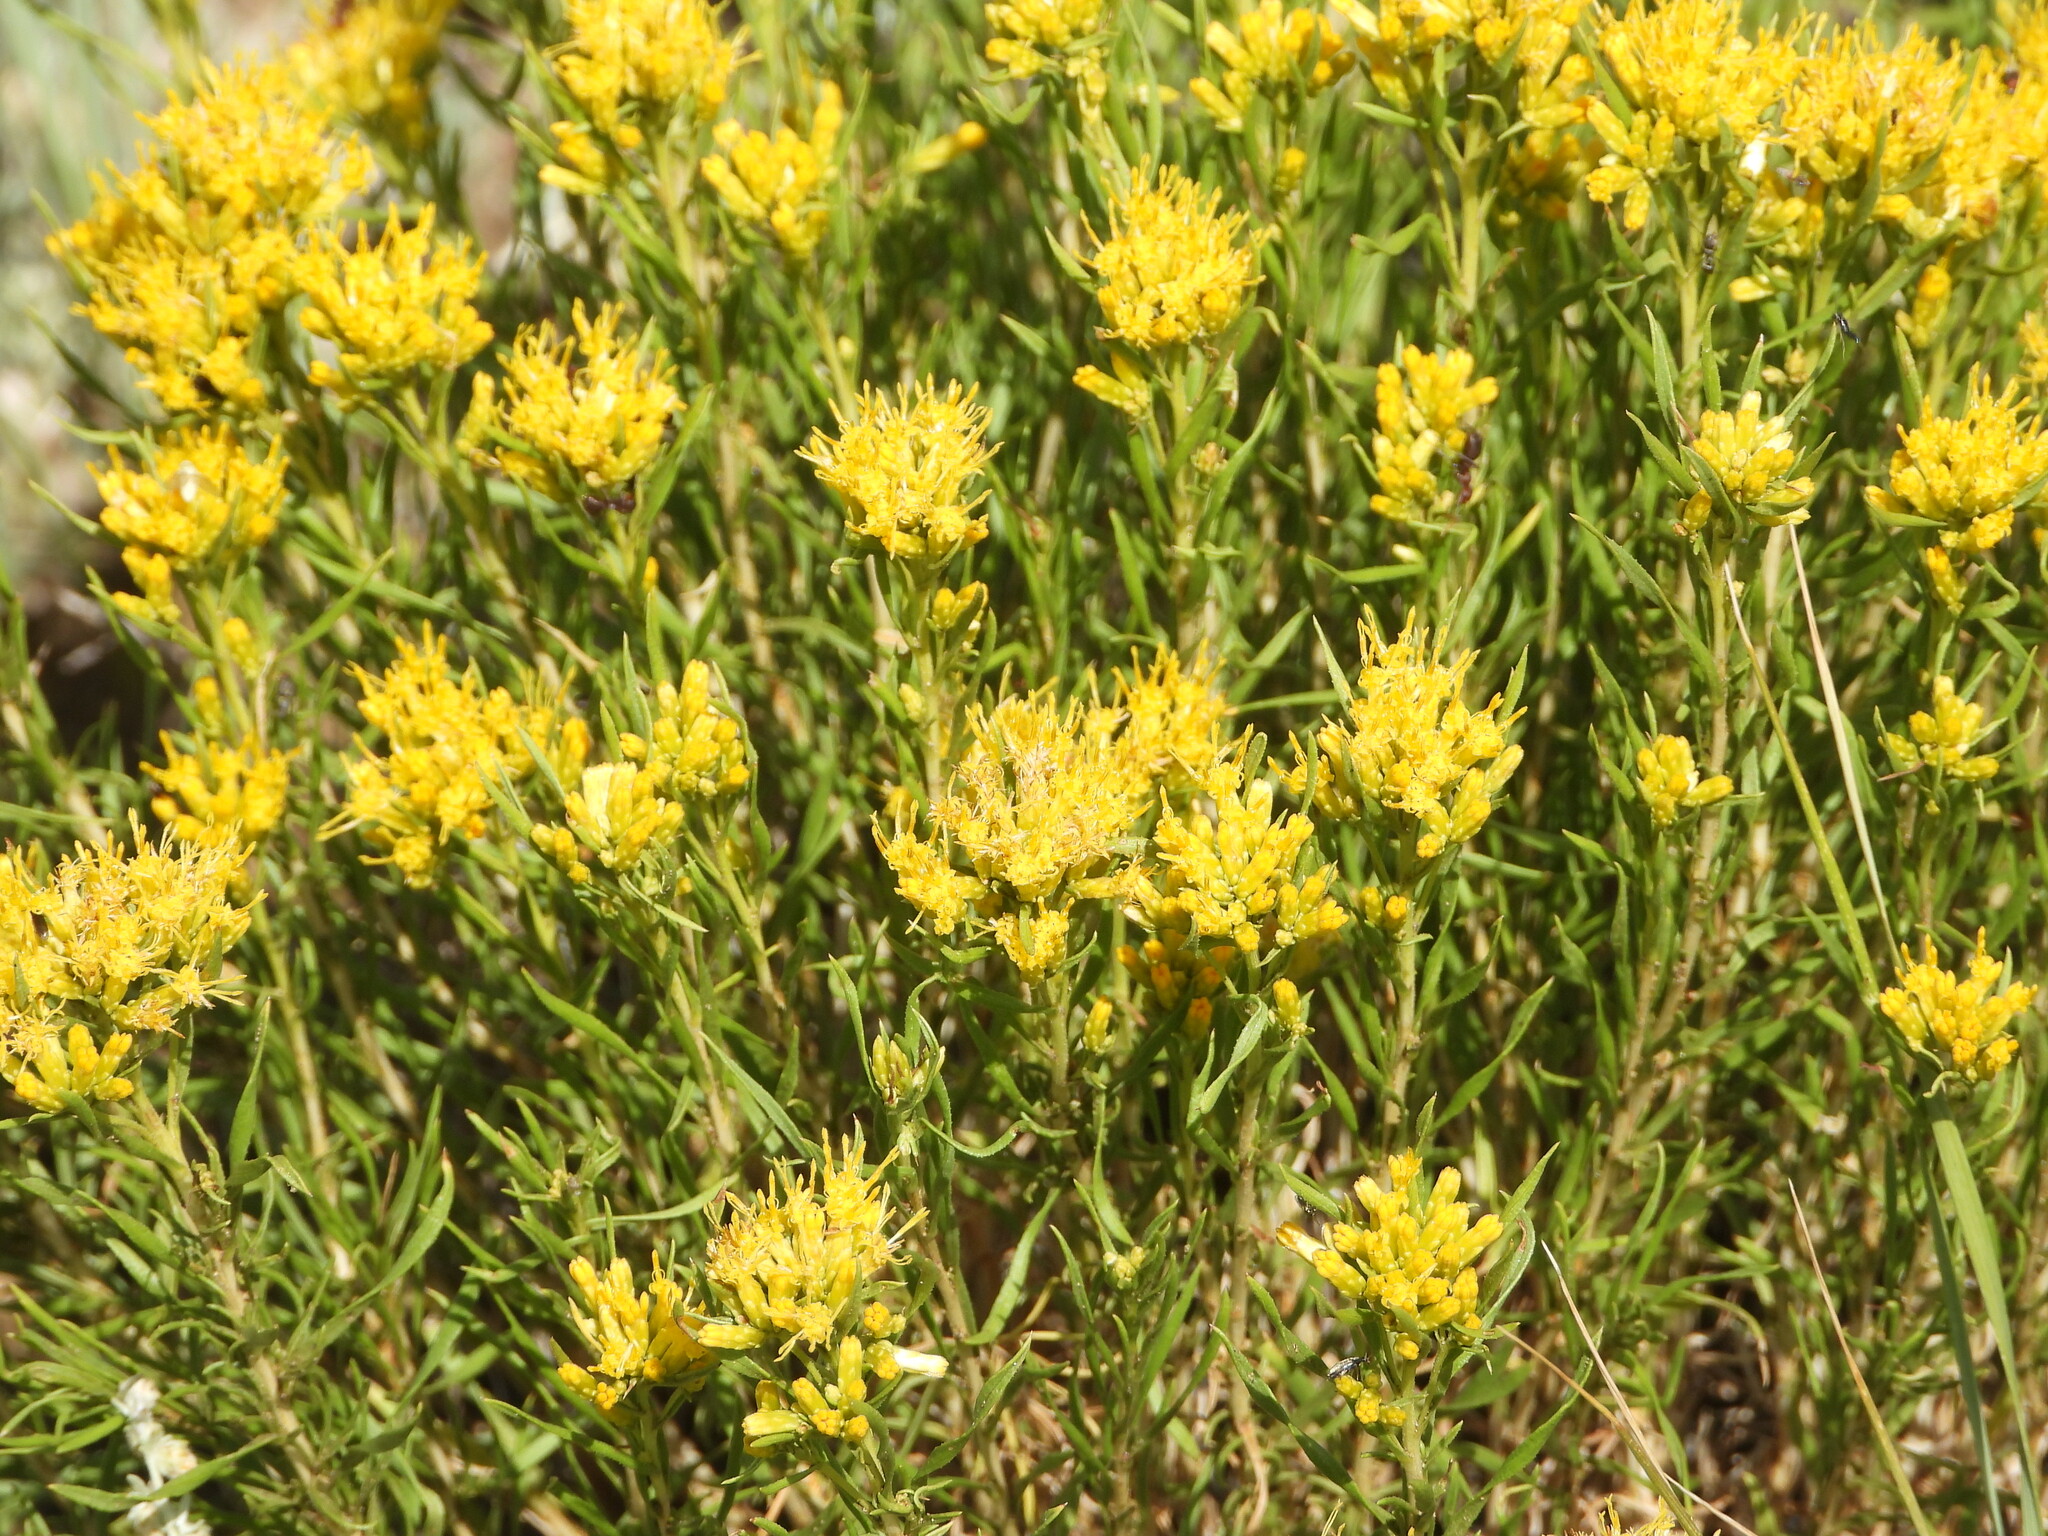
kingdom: Plantae
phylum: Tracheophyta
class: Magnoliopsida
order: Asterales
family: Asteraceae
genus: Chrysothamnus
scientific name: Chrysothamnus viscidiflorus
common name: Yellow rabbitbrush
